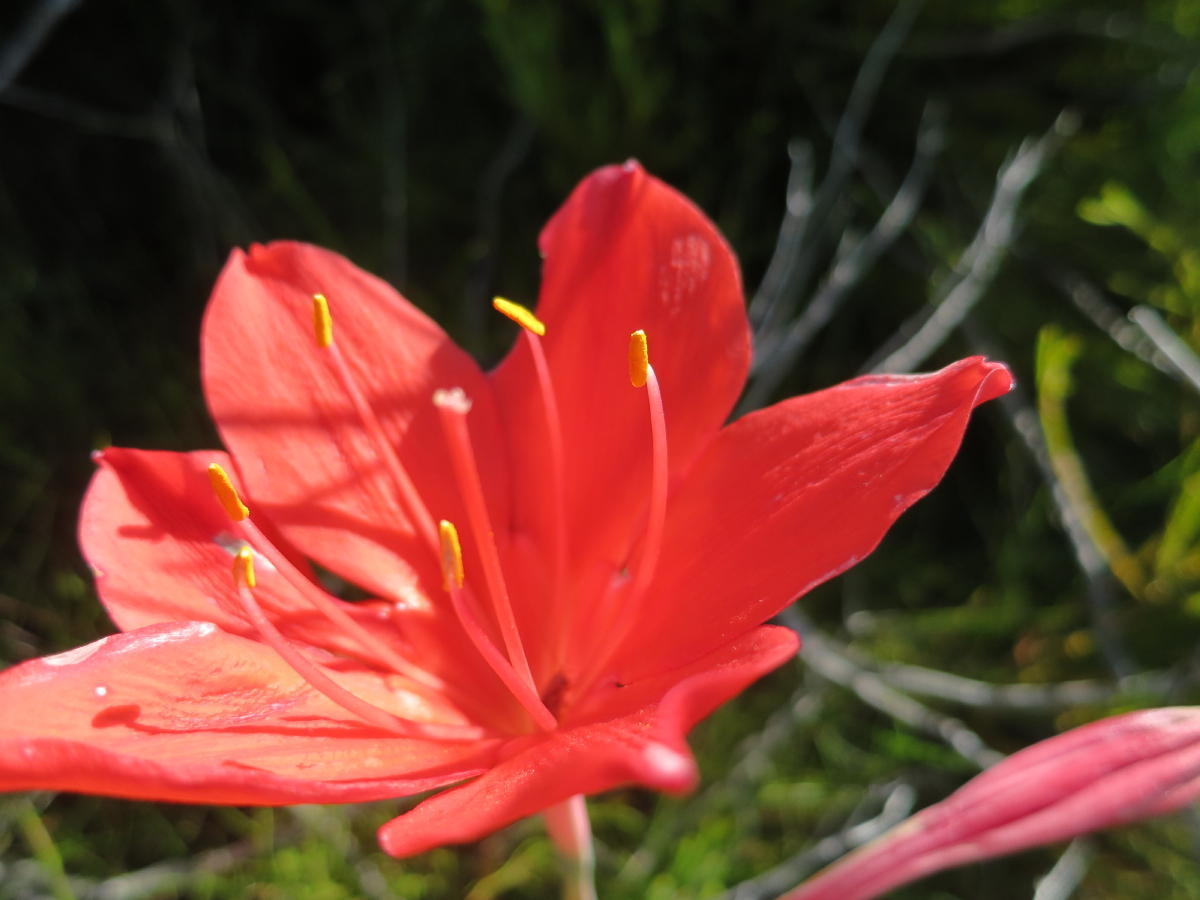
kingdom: Plantae
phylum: Tracheophyta
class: Liliopsida
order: Asparagales
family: Amaryllidaceae
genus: Cyrtanthus
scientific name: Cyrtanthus elatus
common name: Scarborough-lily
